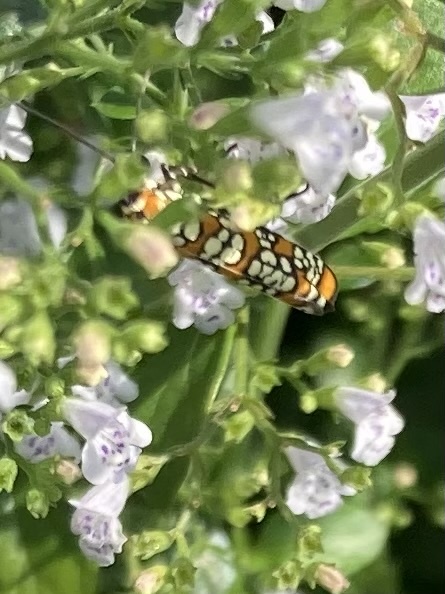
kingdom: Animalia
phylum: Arthropoda
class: Insecta
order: Lepidoptera
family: Attevidae
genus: Atteva
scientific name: Atteva punctella
